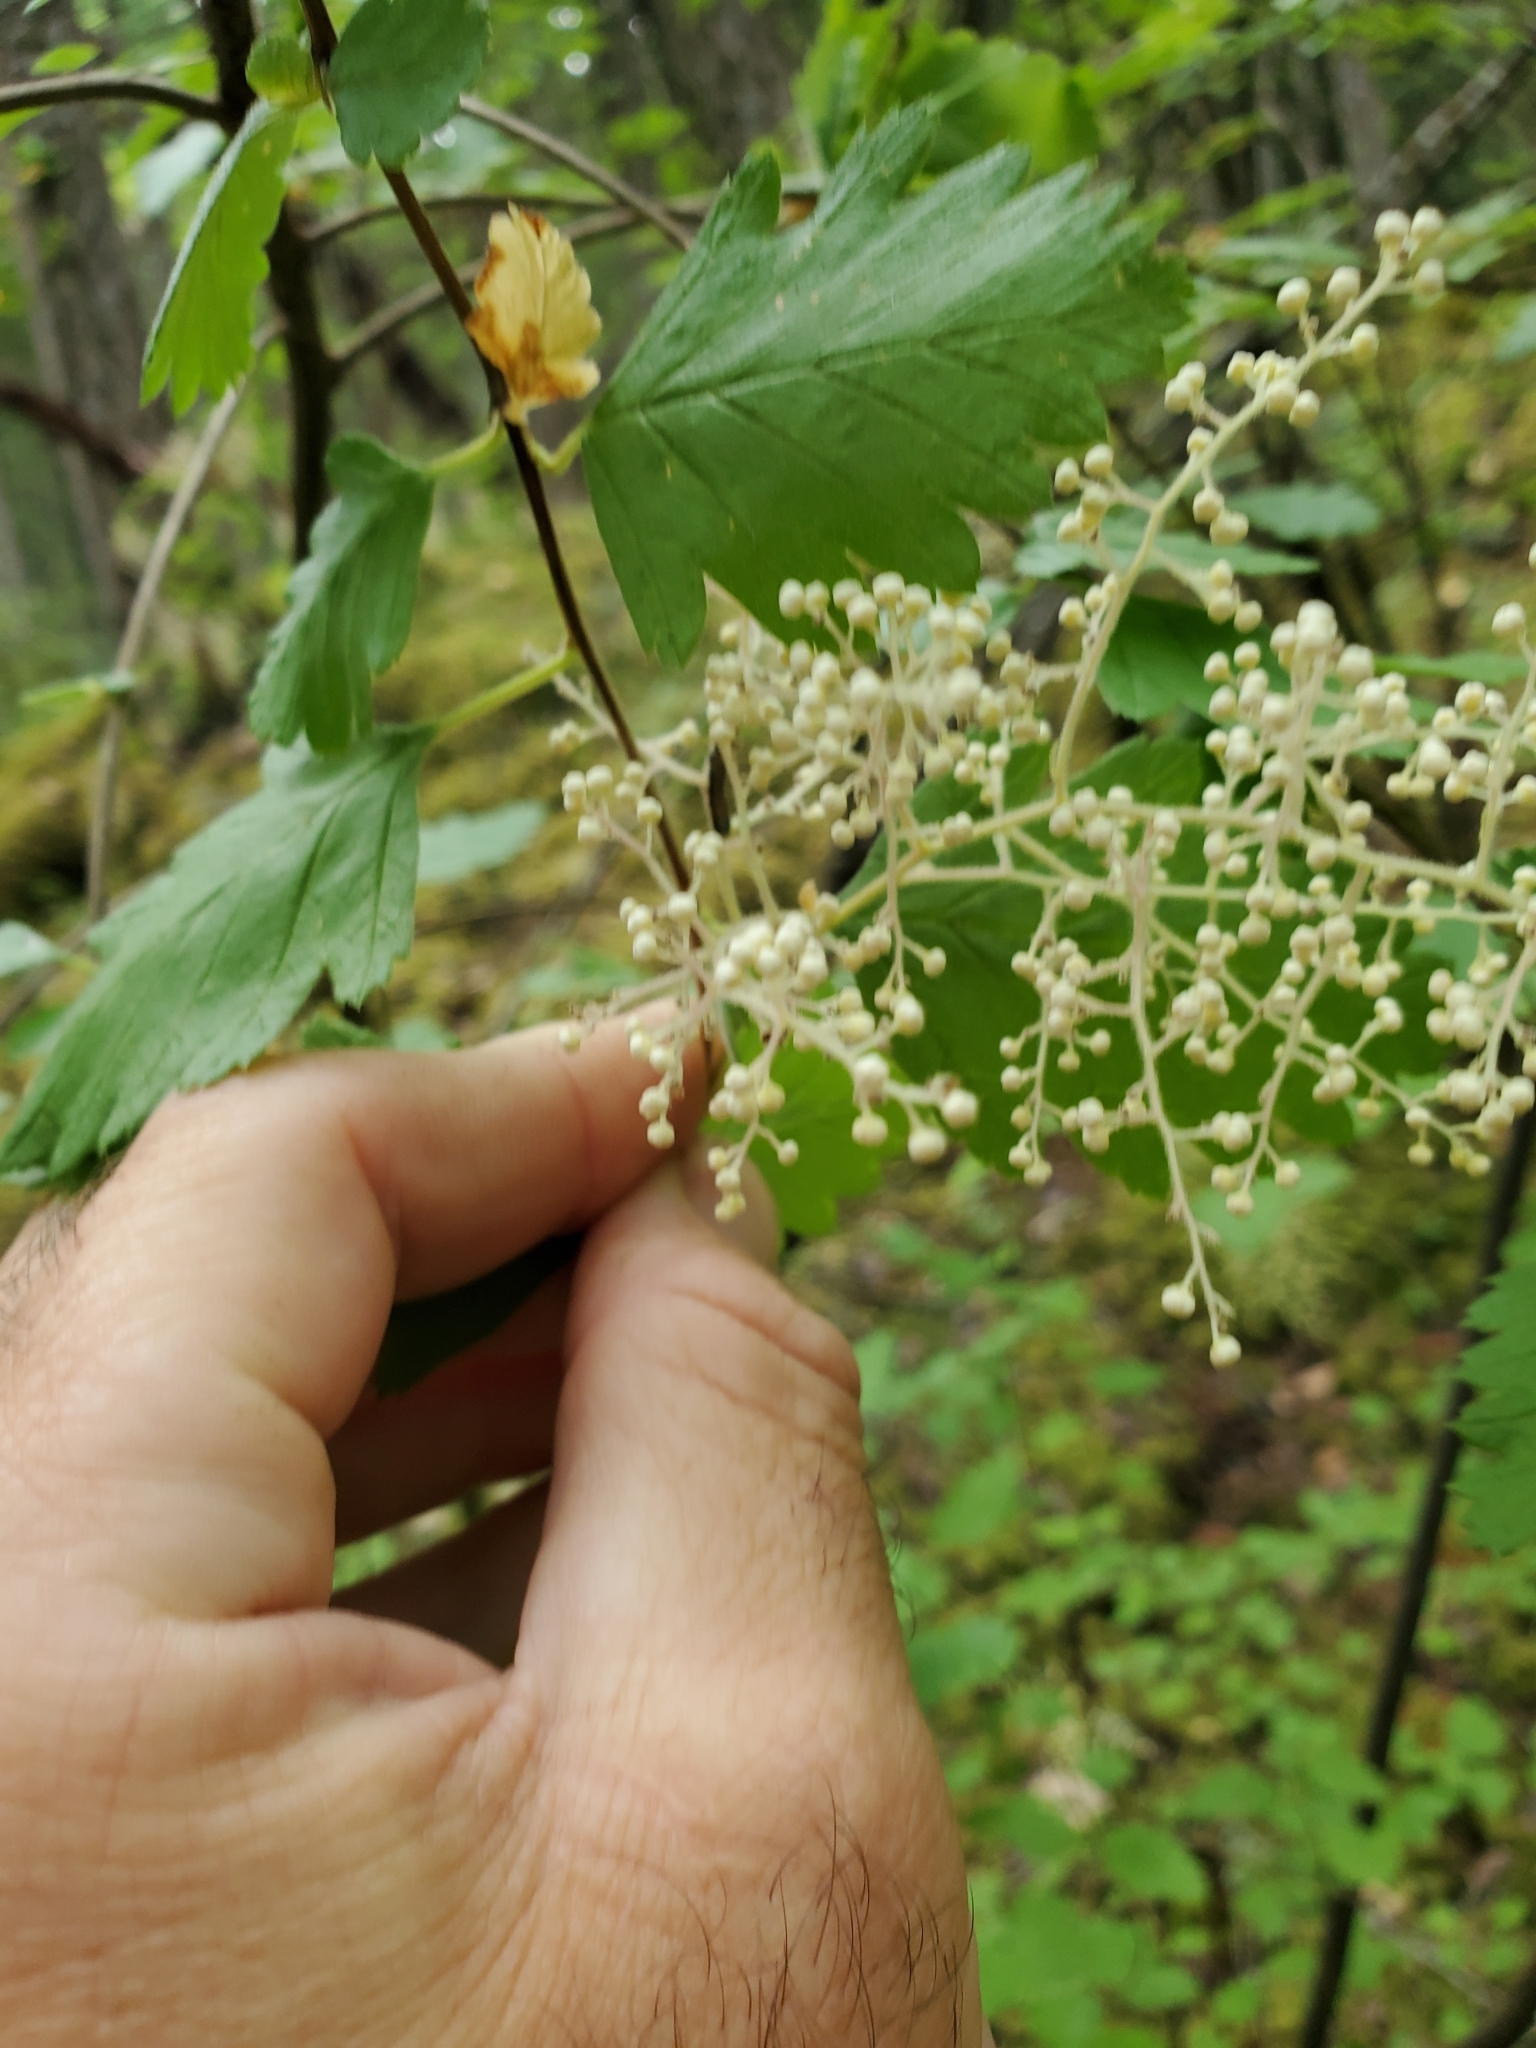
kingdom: Plantae
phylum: Tracheophyta
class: Magnoliopsida
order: Rosales
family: Rosaceae
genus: Holodiscus
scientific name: Holodiscus discolor
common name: Oceanspray
